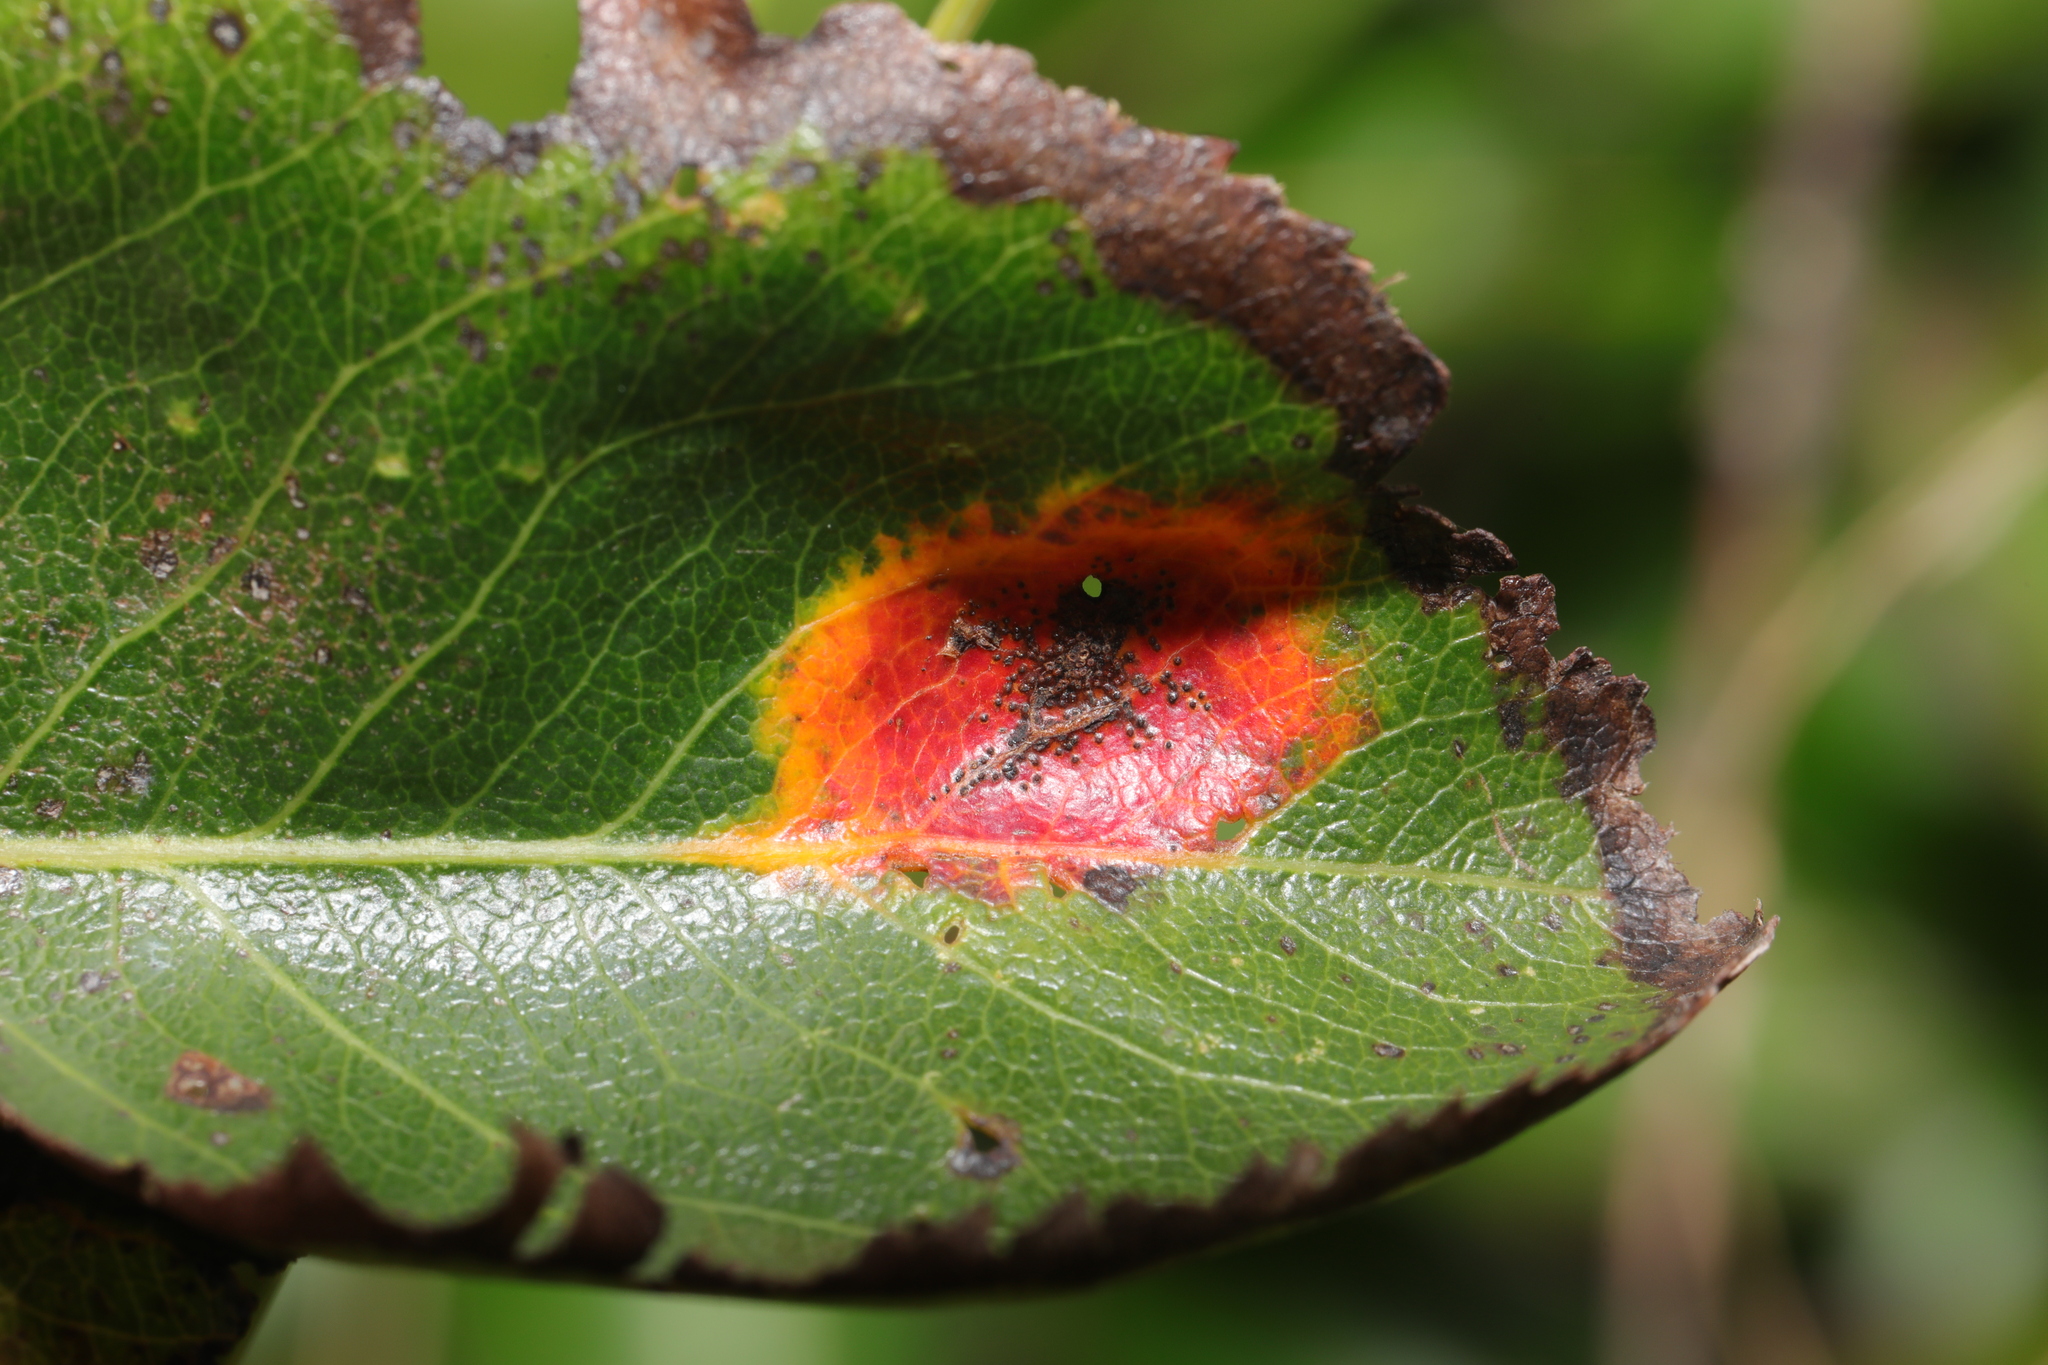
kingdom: Fungi
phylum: Basidiomycota
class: Pucciniomycetes
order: Pucciniales
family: Gymnosporangiaceae
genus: Gymnosporangium
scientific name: Gymnosporangium sabinae
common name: Pear trellis rust fungus
